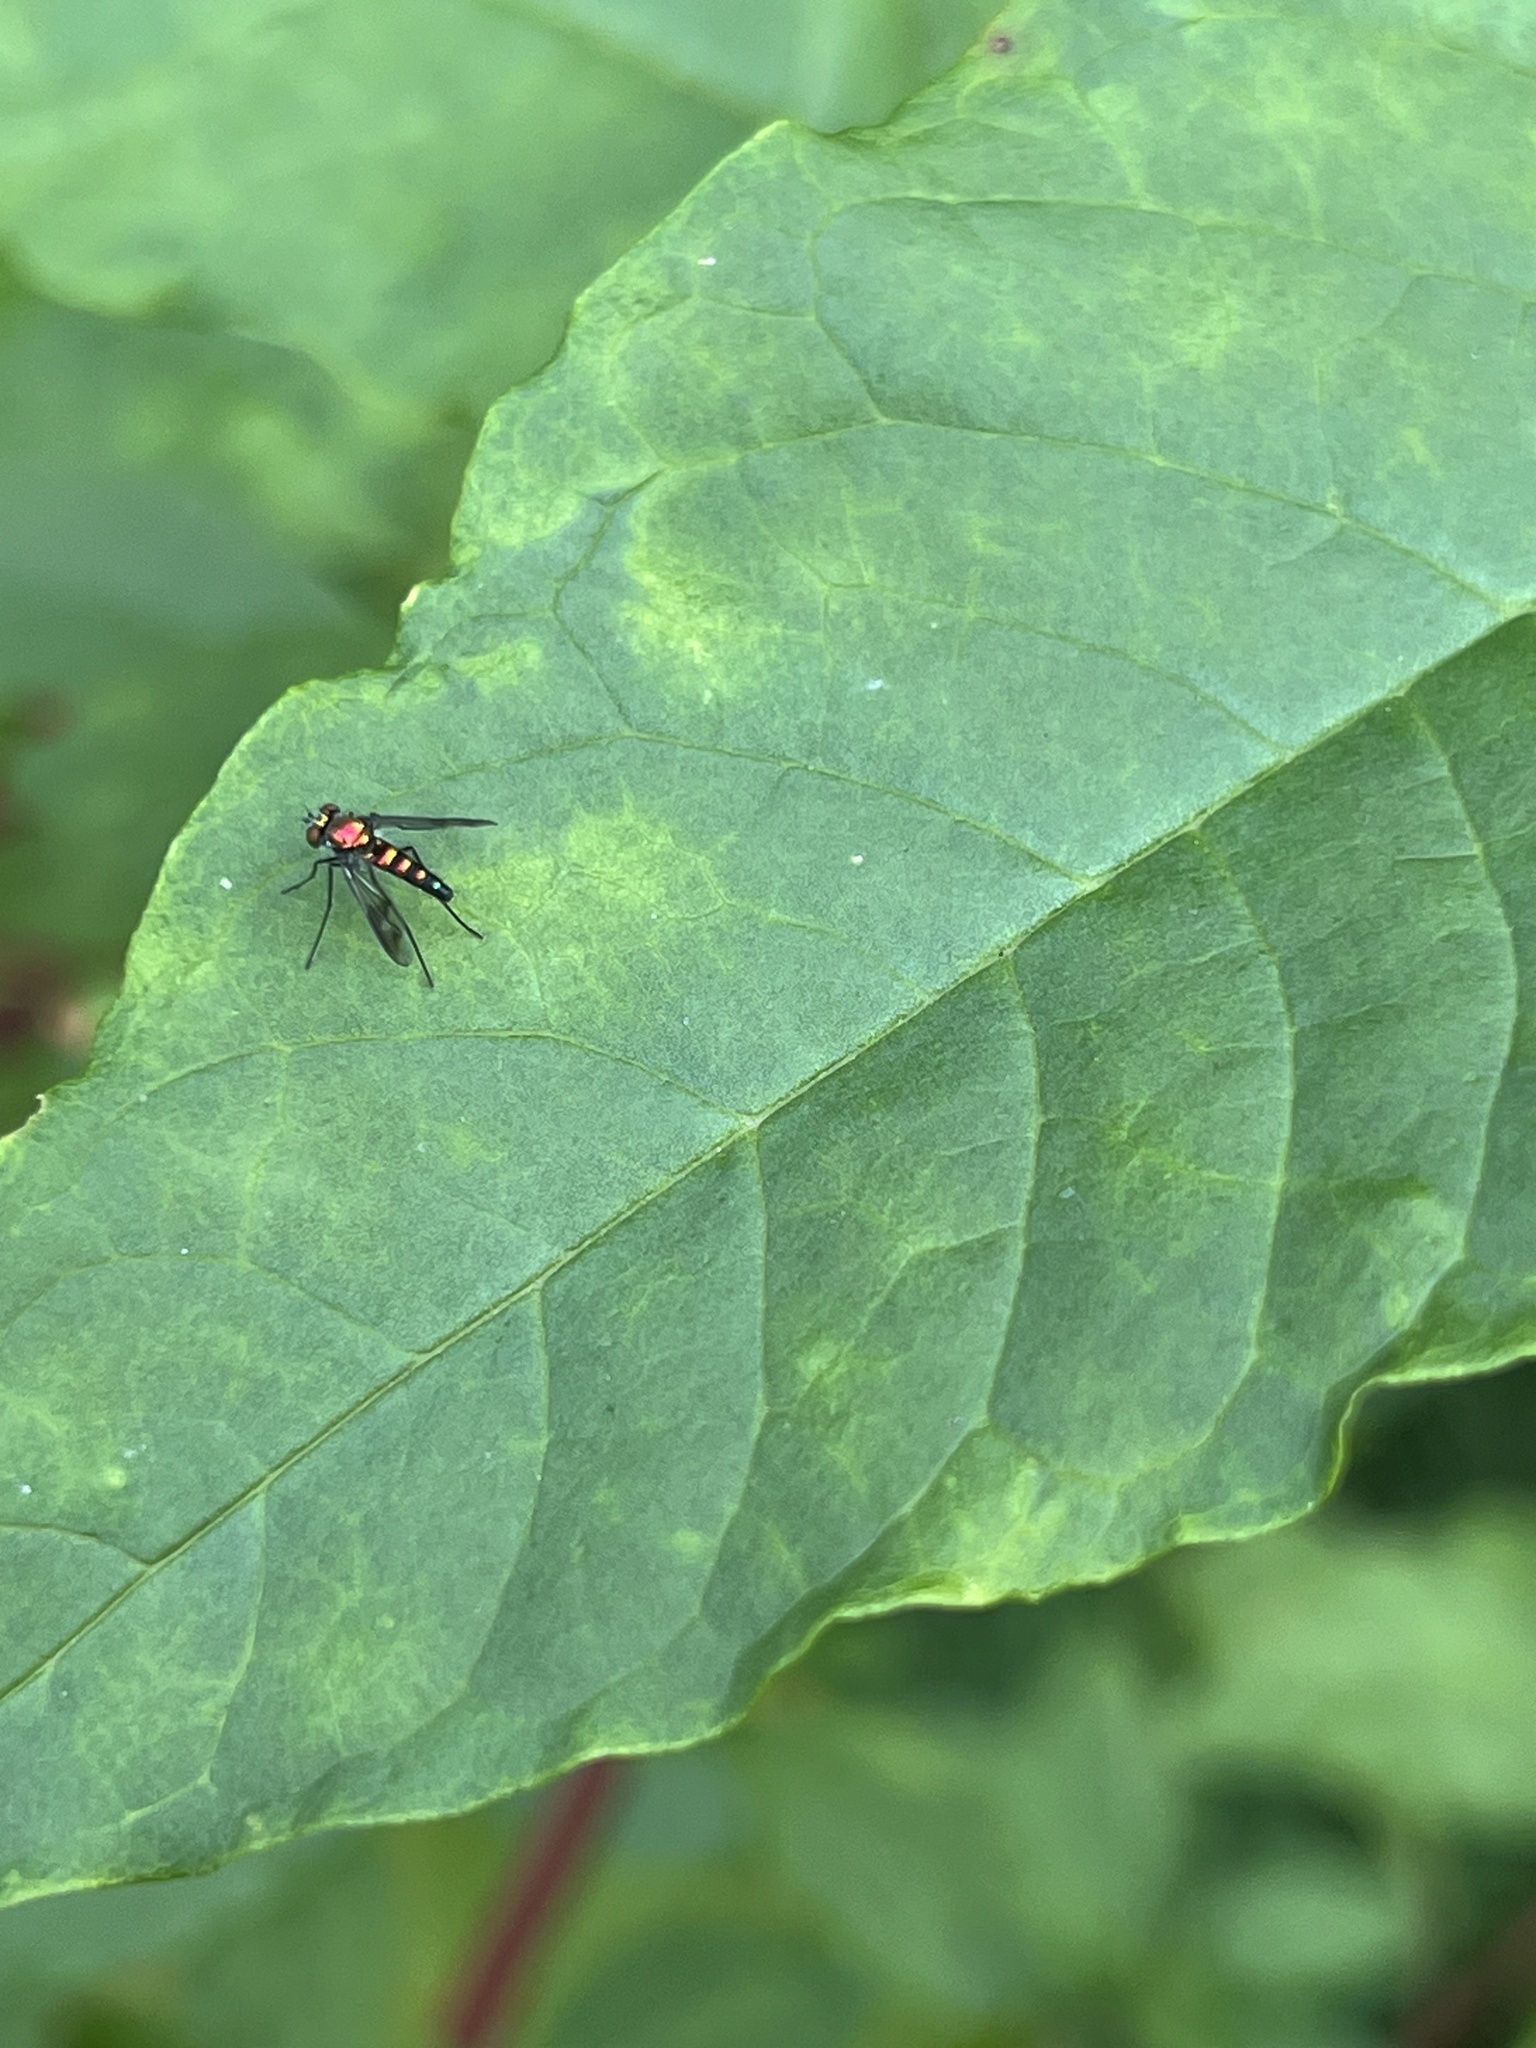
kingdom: Animalia
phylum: Arthropoda
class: Insecta
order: Diptera
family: Dolichopodidae
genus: Condylostylus
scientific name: Condylostylus patibulatus
